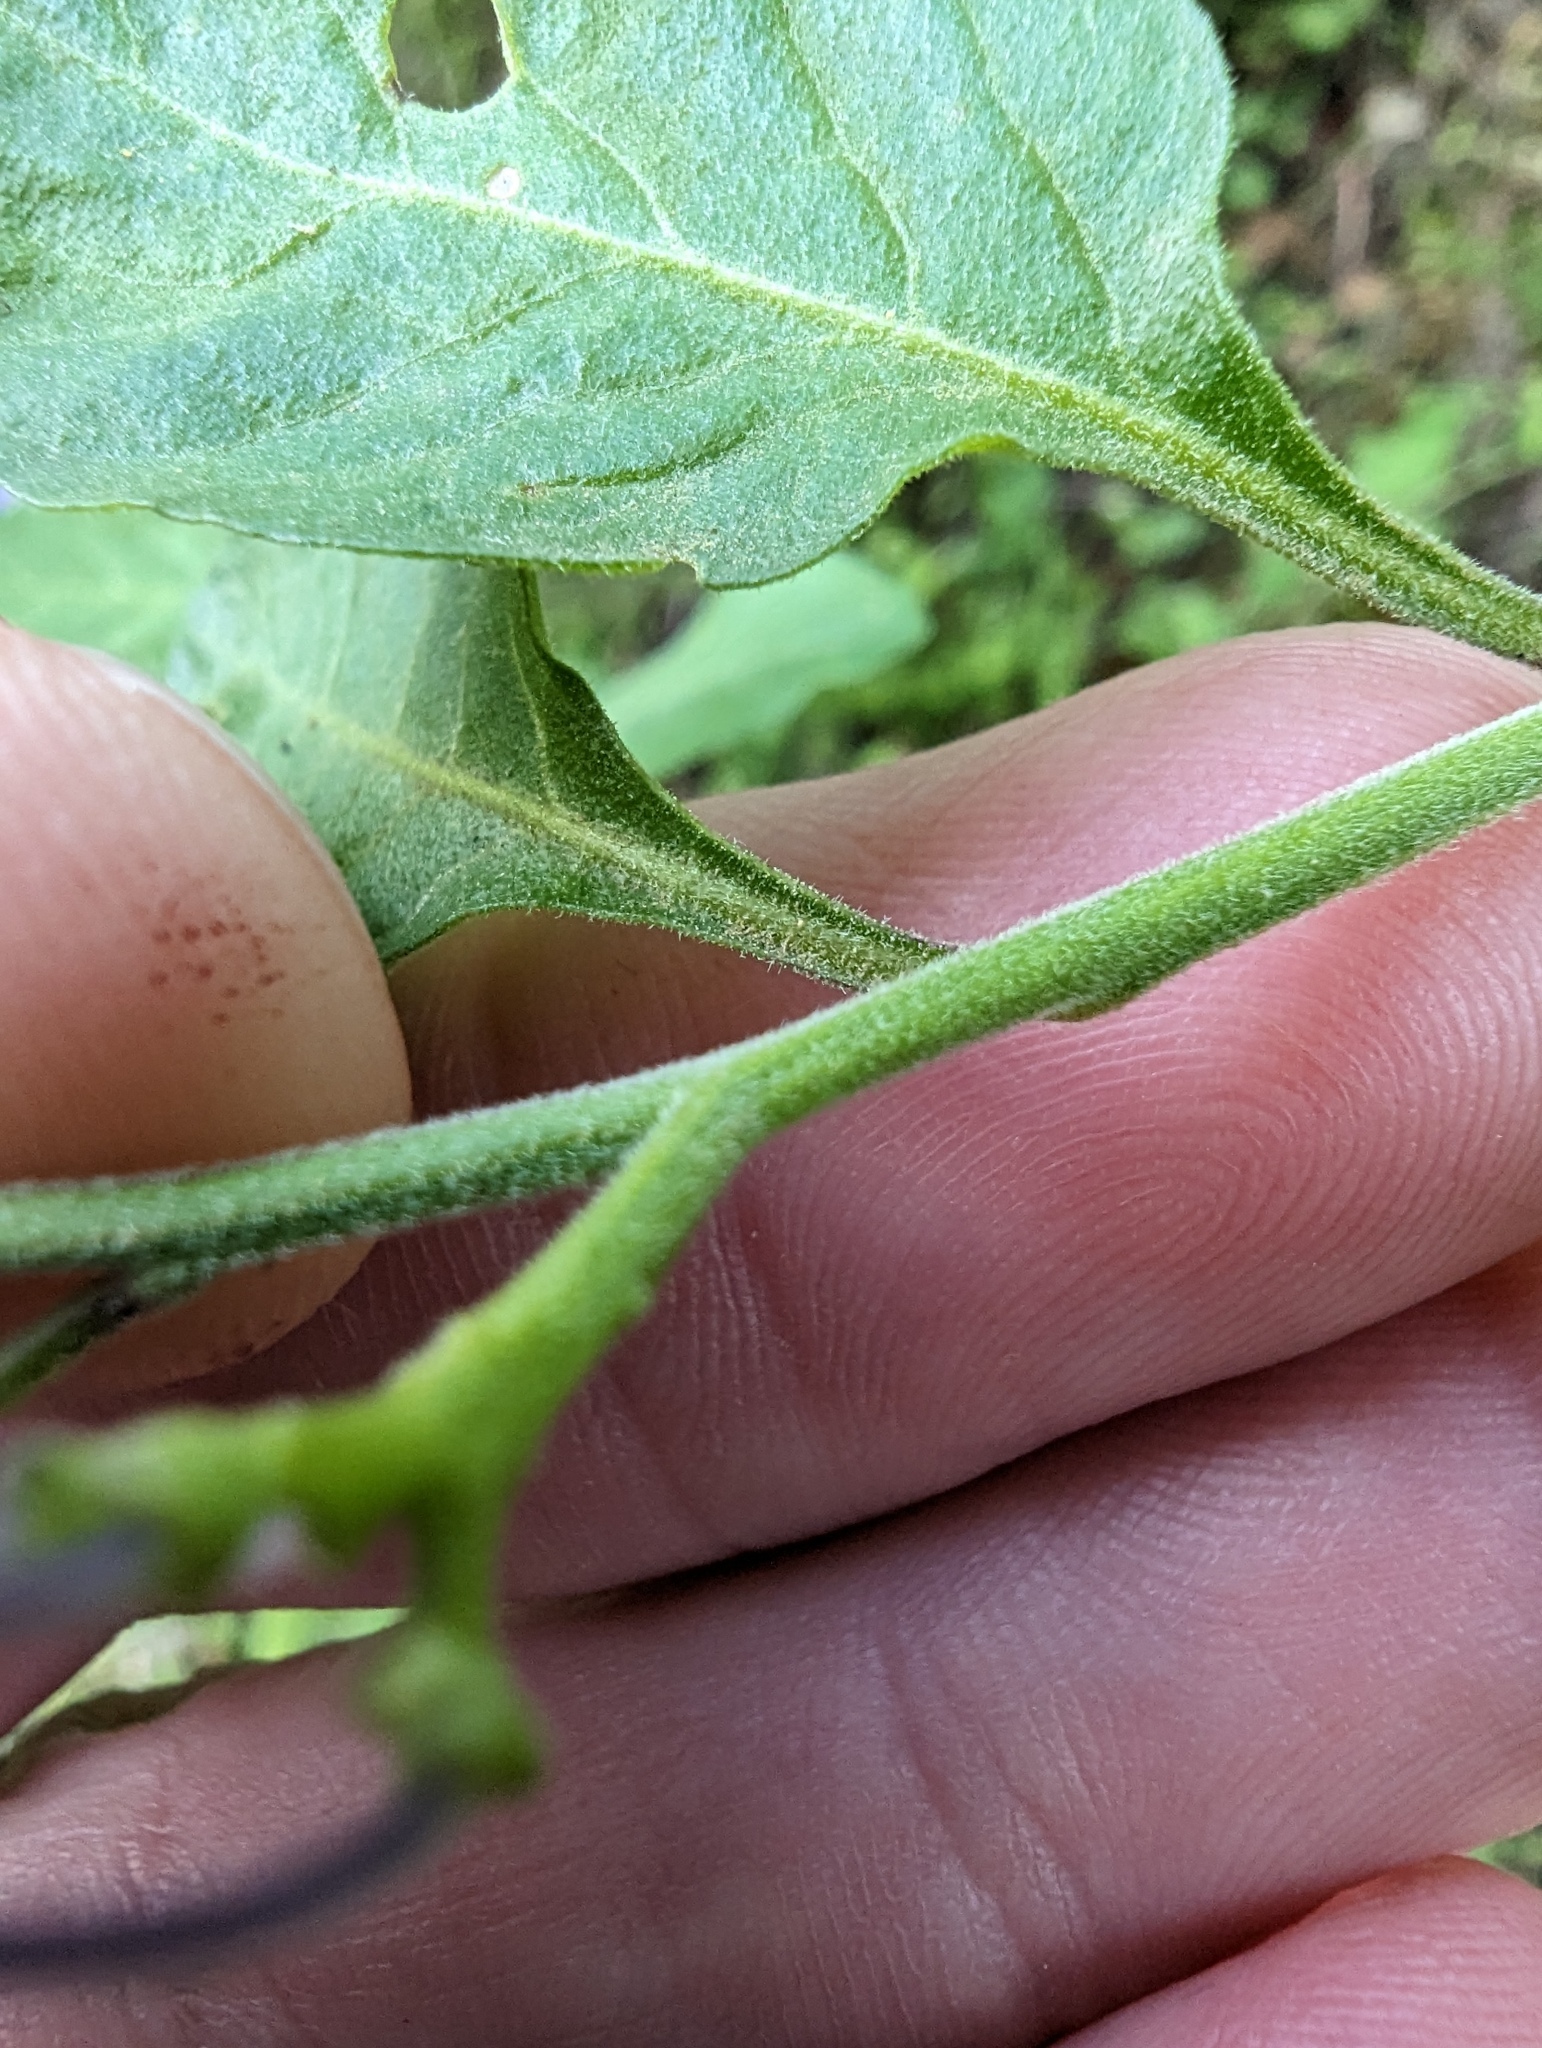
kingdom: Plantae
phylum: Tracheophyta
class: Magnoliopsida
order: Solanales
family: Solanaceae
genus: Solanum
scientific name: Solanum umbelliferum
